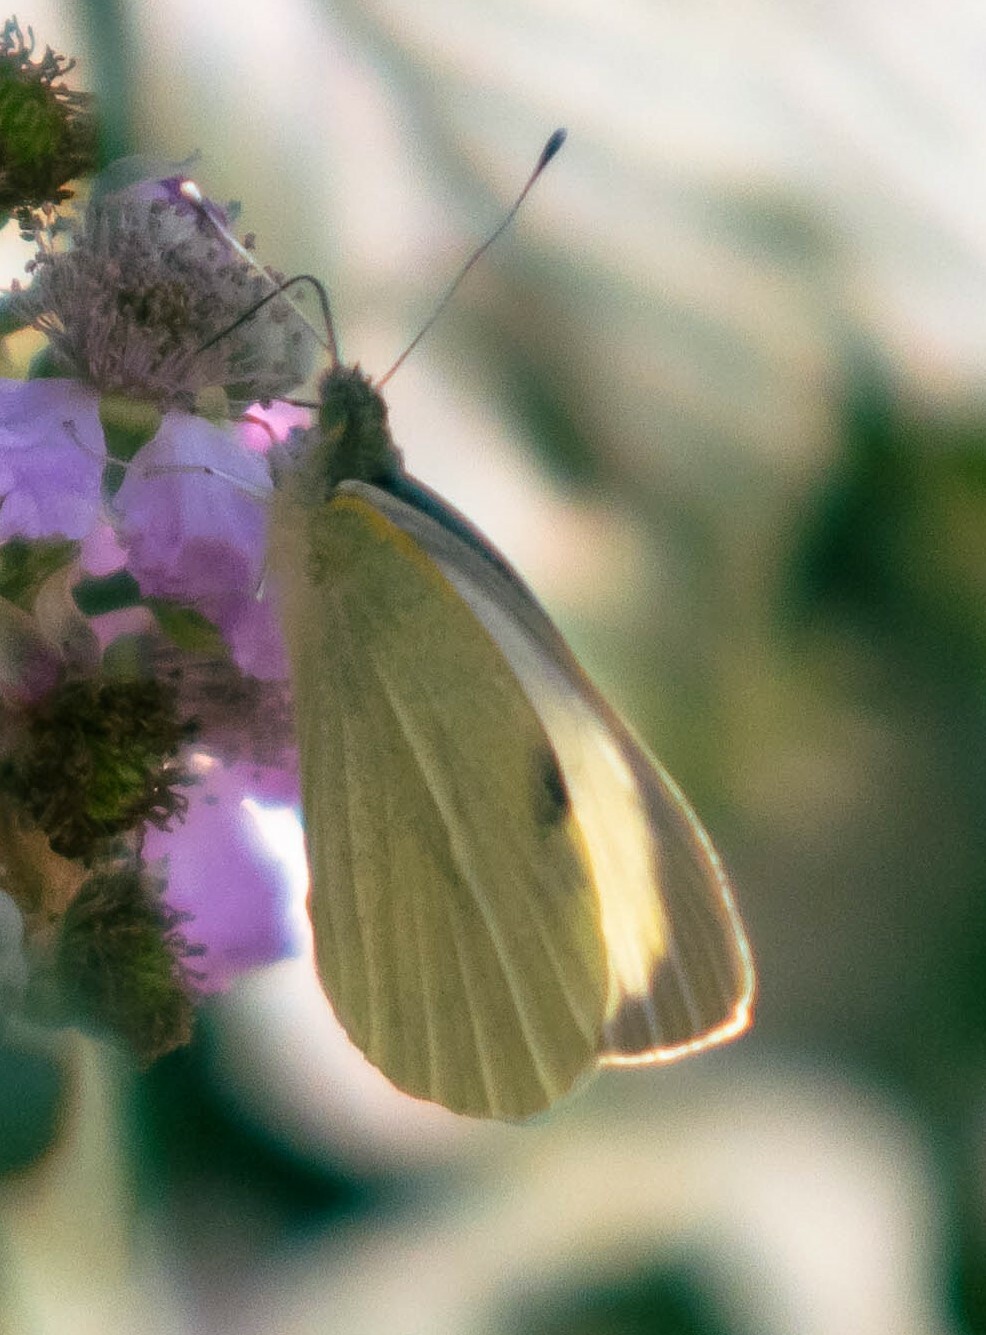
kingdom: Animalia
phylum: Arthropoda
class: Insecta
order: Lepidoptera
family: Pieridae
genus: Pieris
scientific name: Pieris brassicae
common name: Large white
